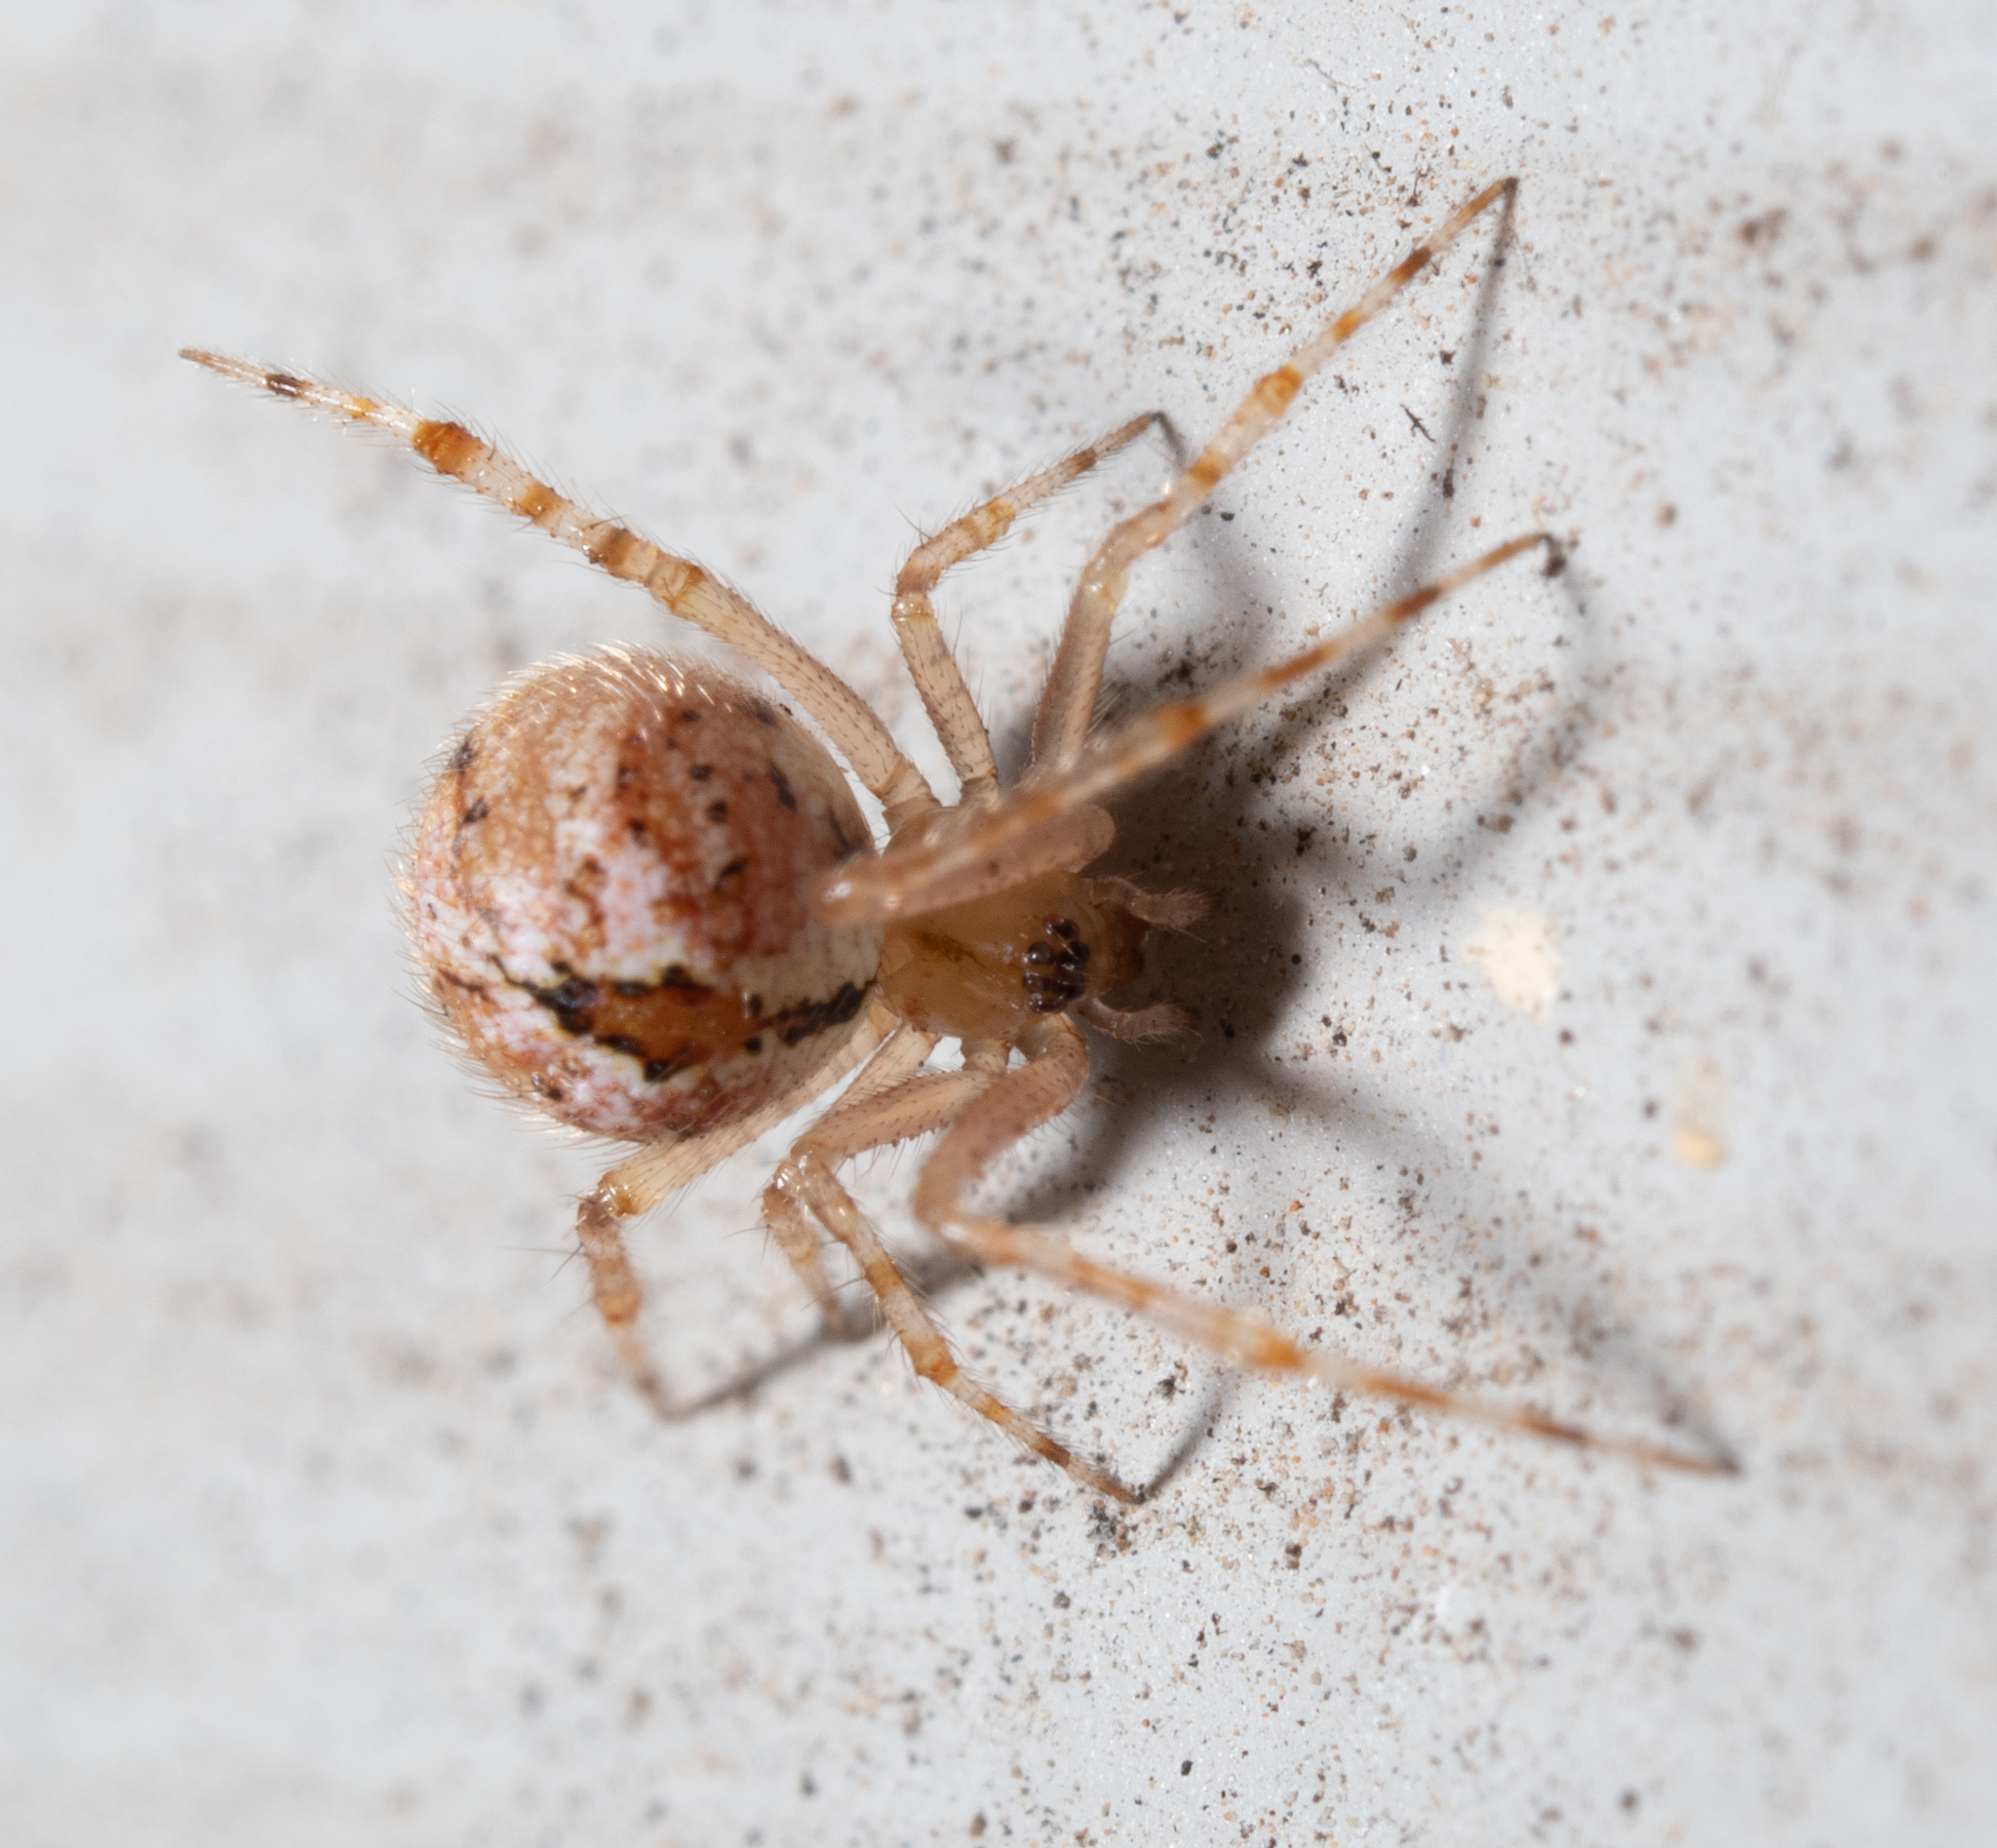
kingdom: Animalia
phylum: Arthropoda
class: Arachnida
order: Araneae
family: Theridiidae
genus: Cryptachaea
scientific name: Cryptachaea veruculata
